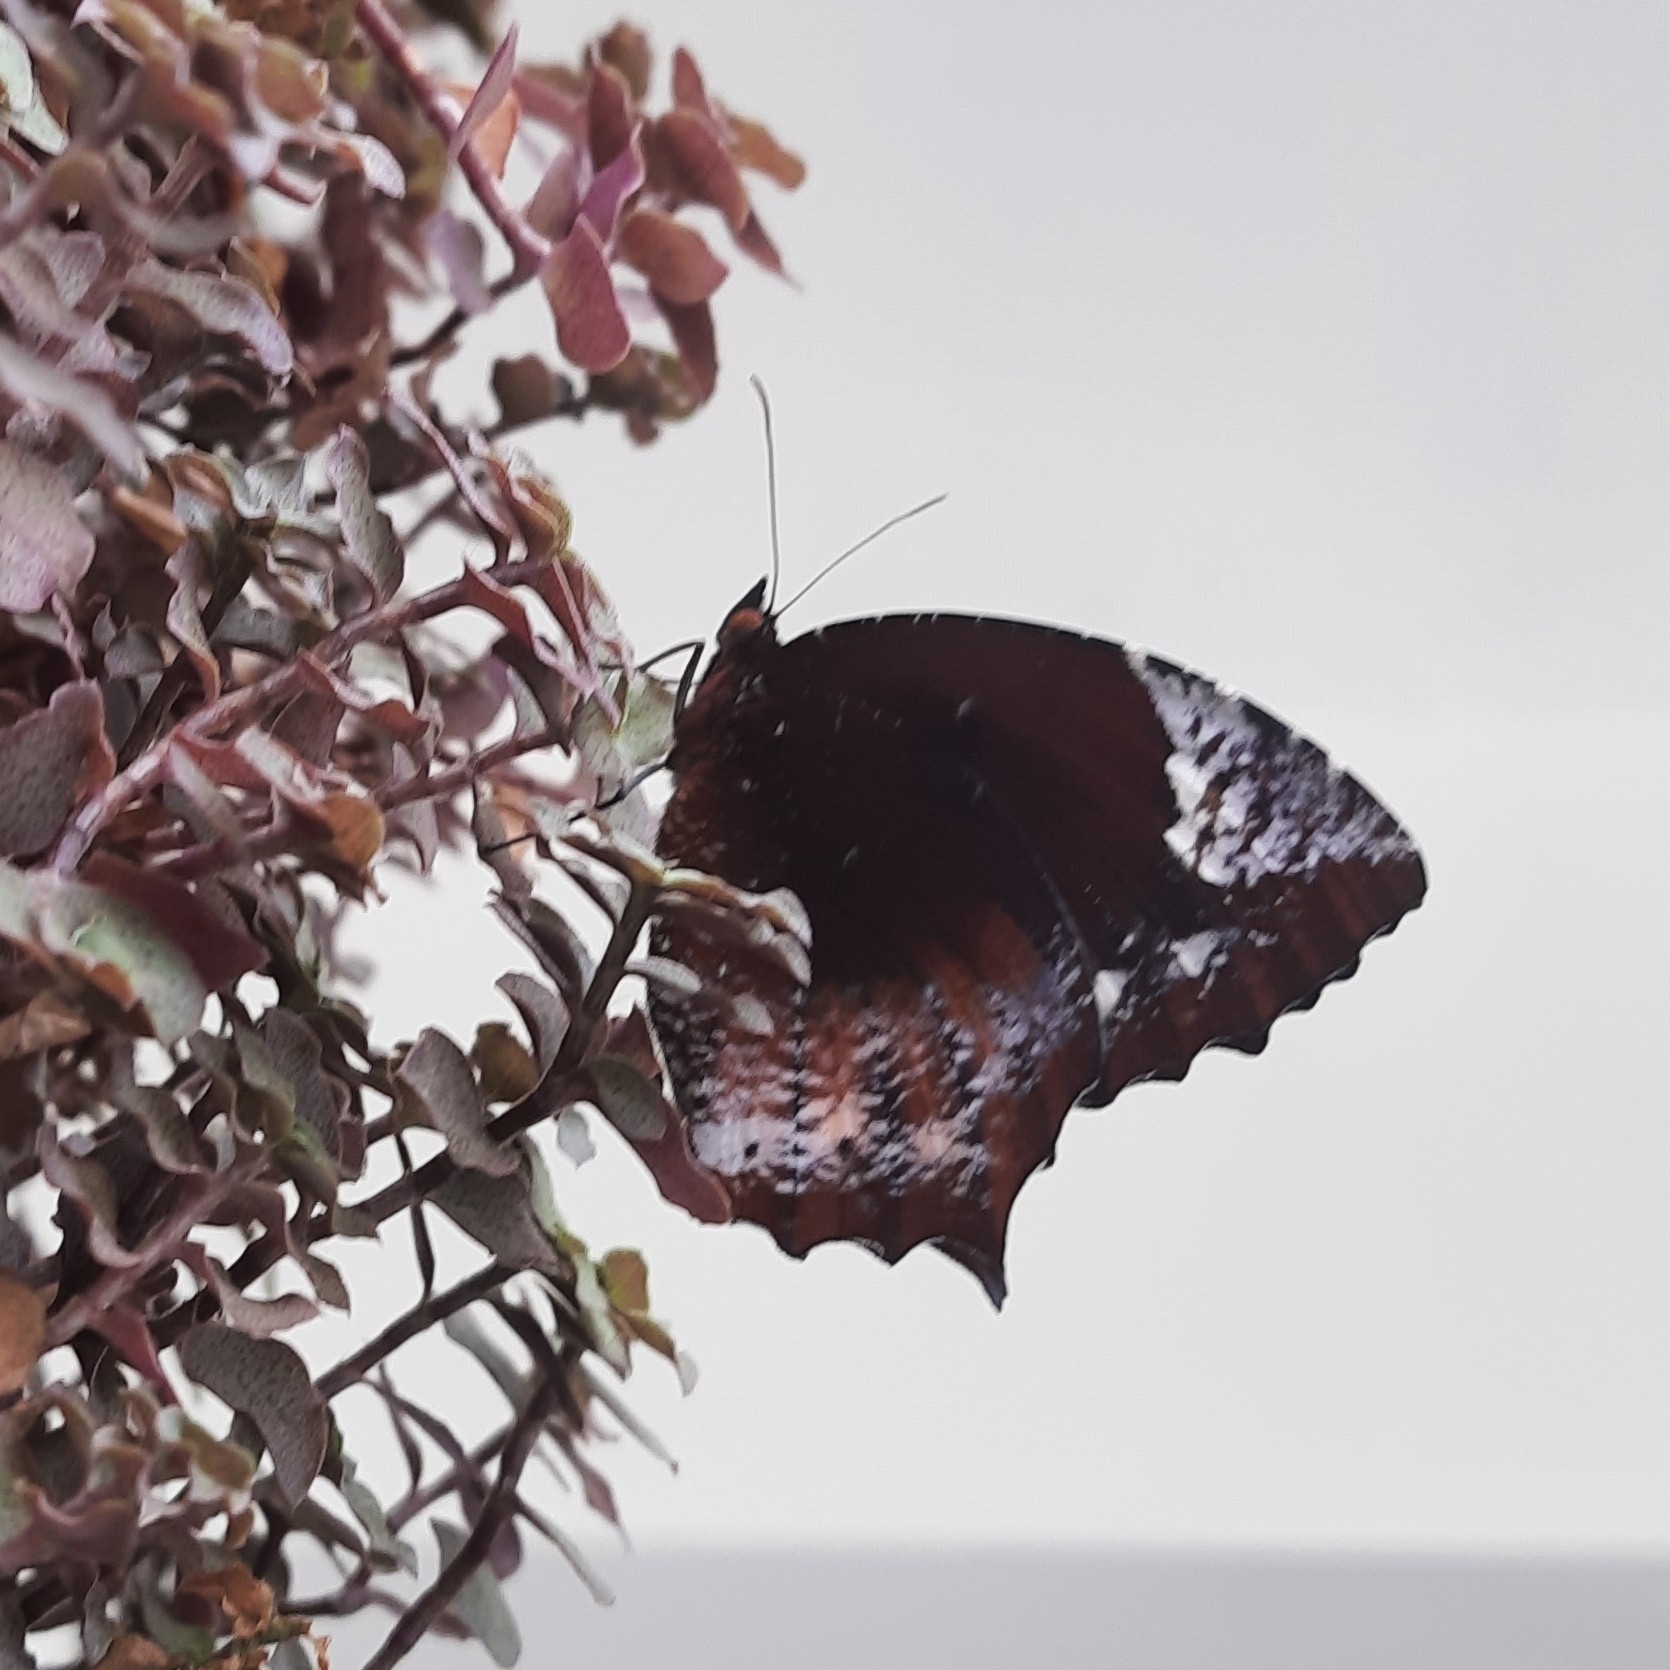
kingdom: Animalia
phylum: Arthropoda
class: Insecta
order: Lepidoptera
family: Nymphalidae
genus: Elymnias
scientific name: Elymnias caudata
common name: Tailed palmfly
